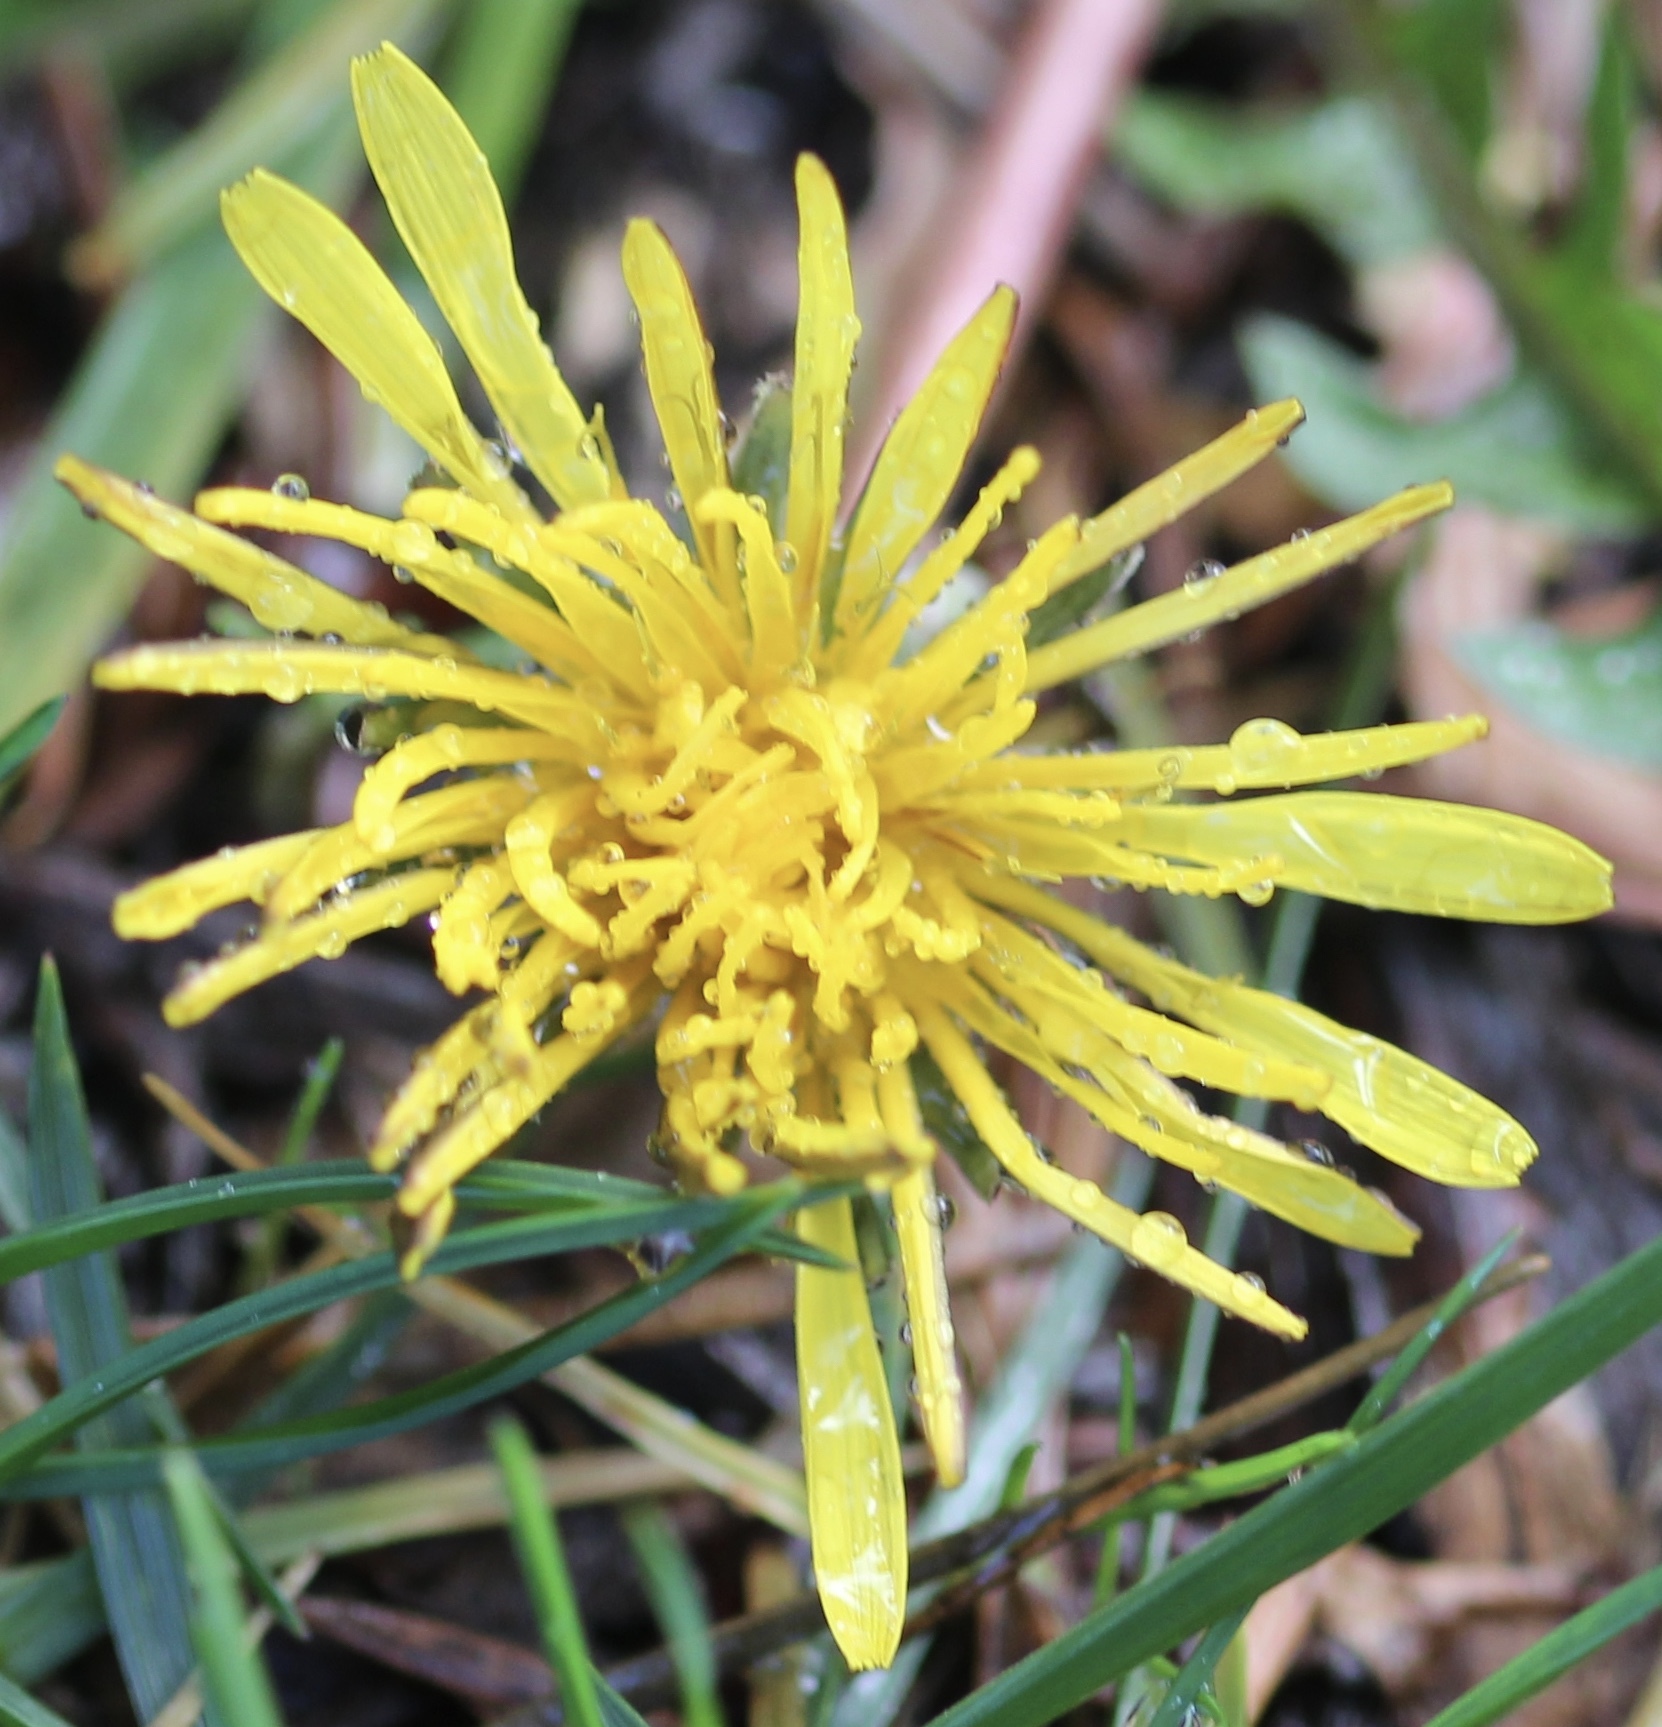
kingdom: Plantae
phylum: Tracheophyta
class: Magnoliopsida
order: Asterales
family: Asteraceae
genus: Taraxacum
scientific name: Taraxacum officinale
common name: Common dandelion
